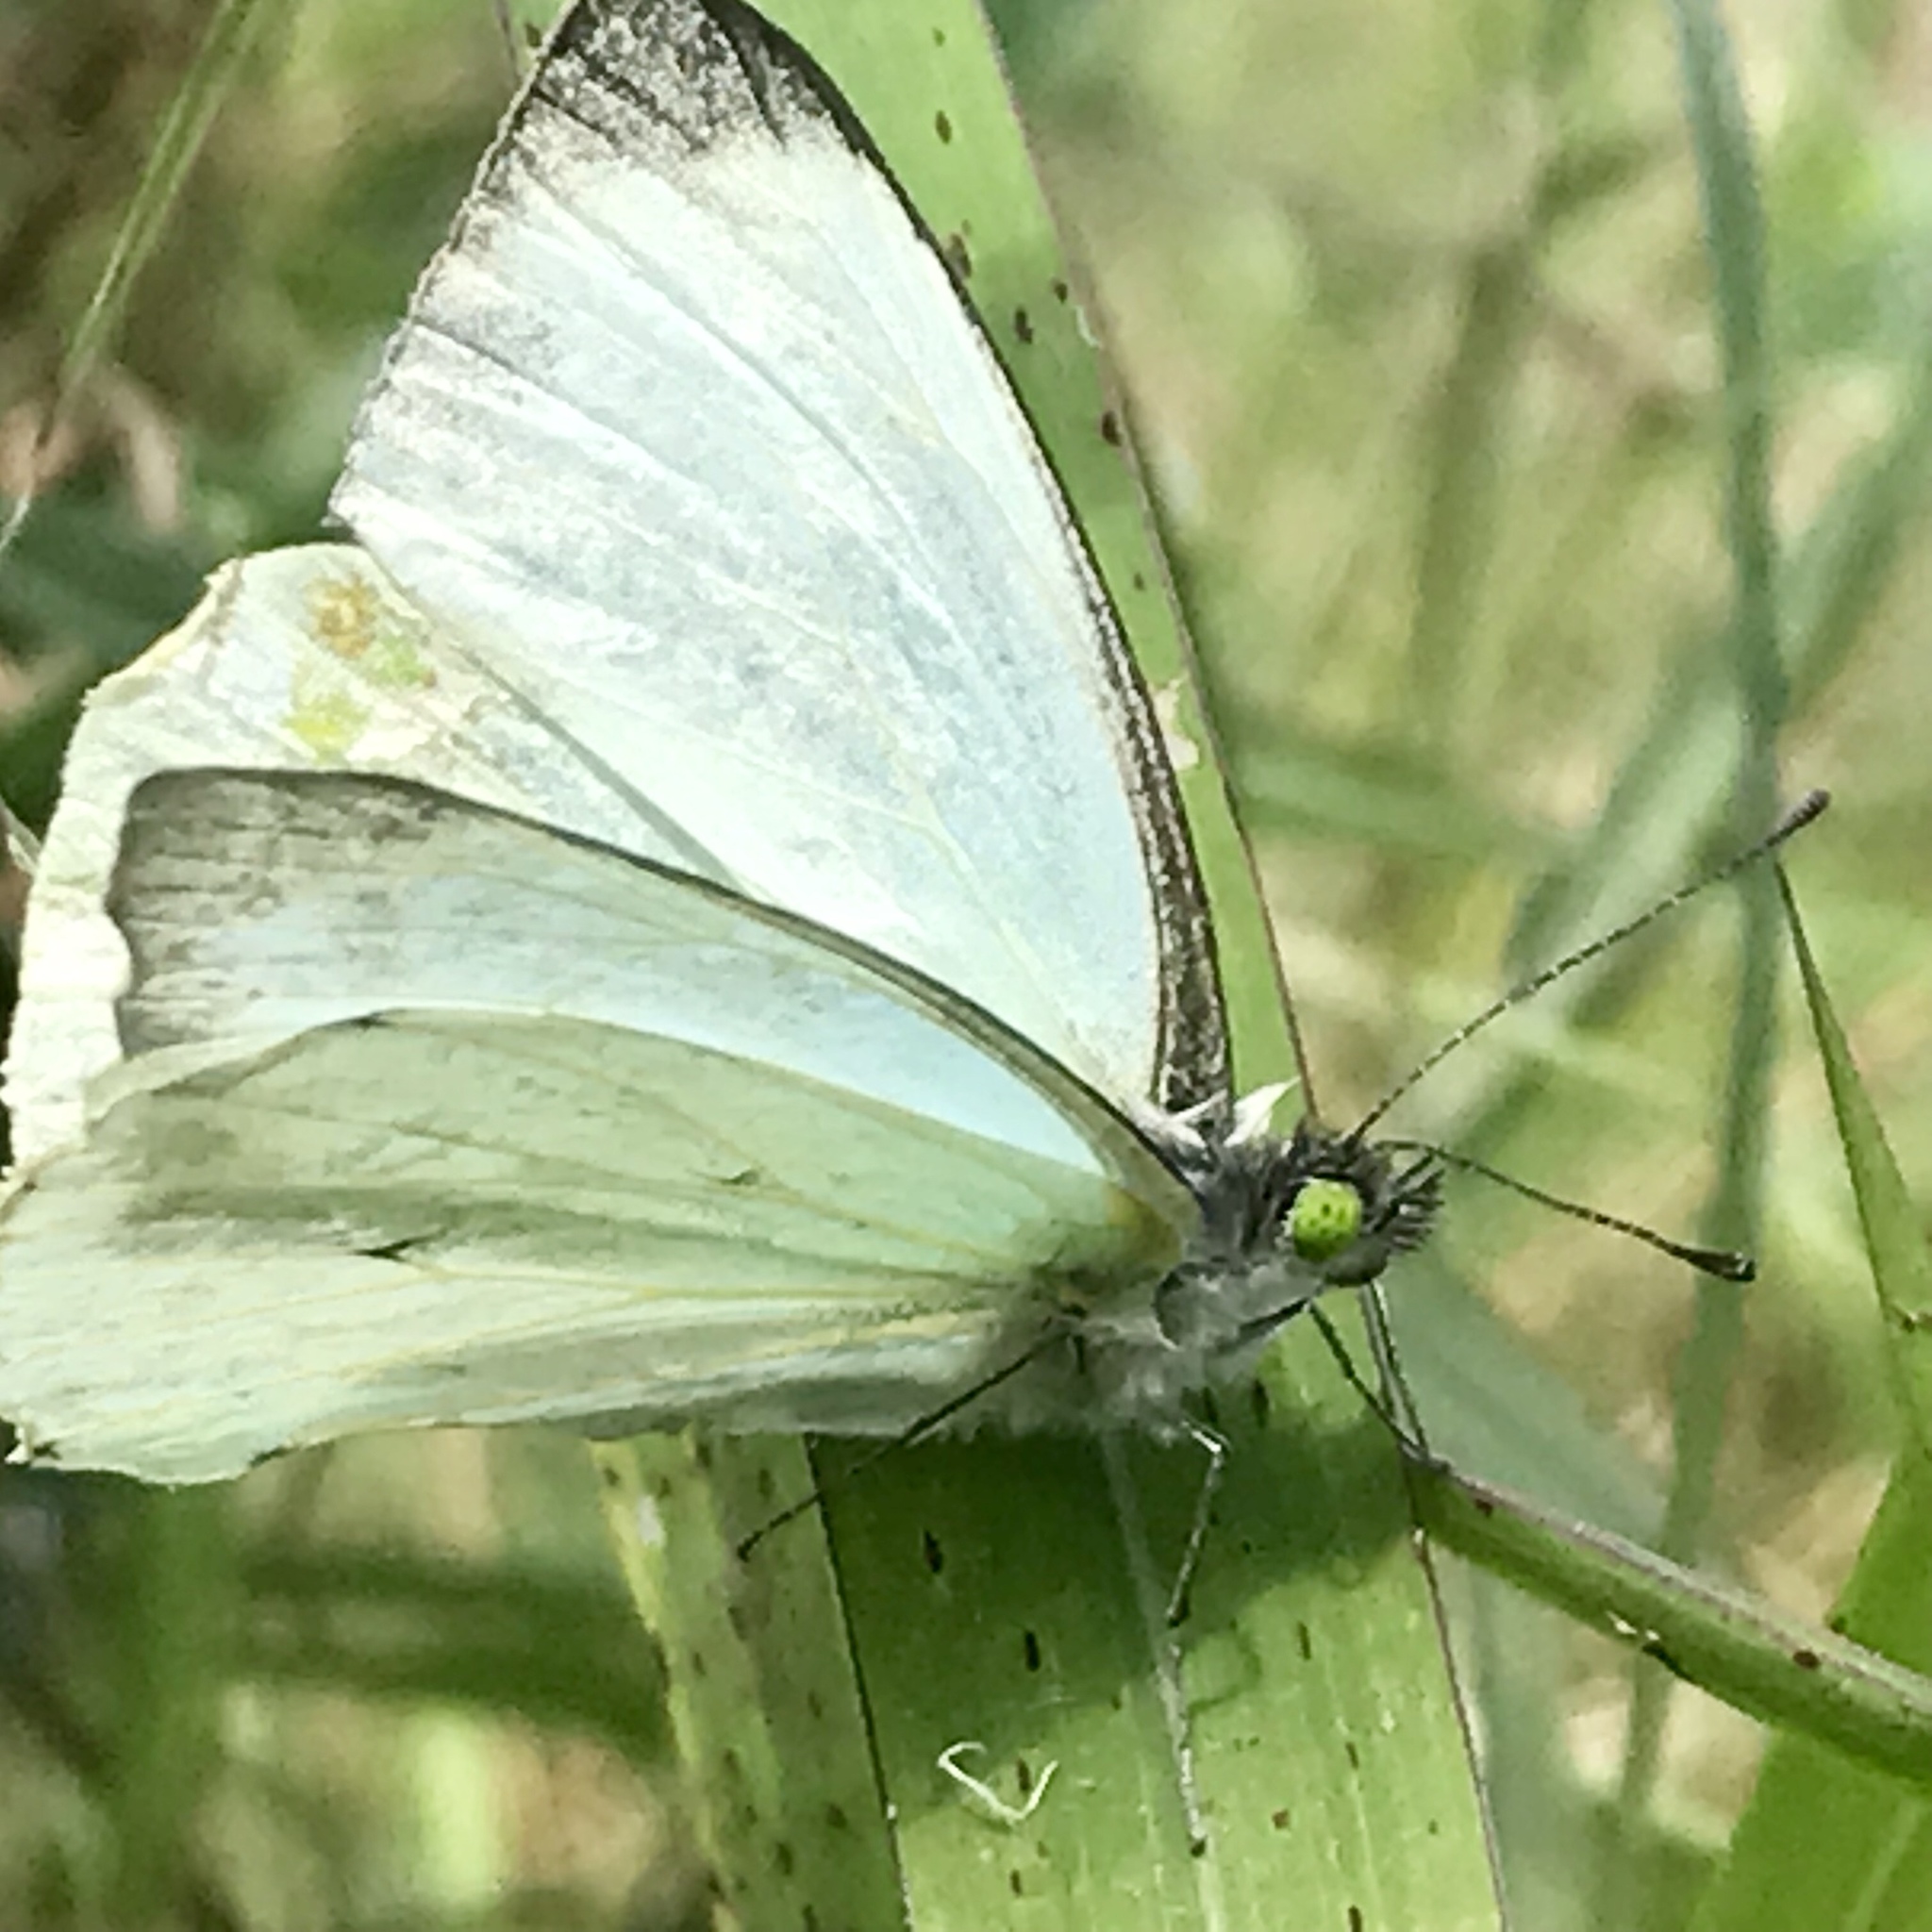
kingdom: Animalia
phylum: Arthropoda
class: Insecta
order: Lepidoptera
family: Pieridae
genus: Leptophobia
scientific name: Leptophobia aripa
